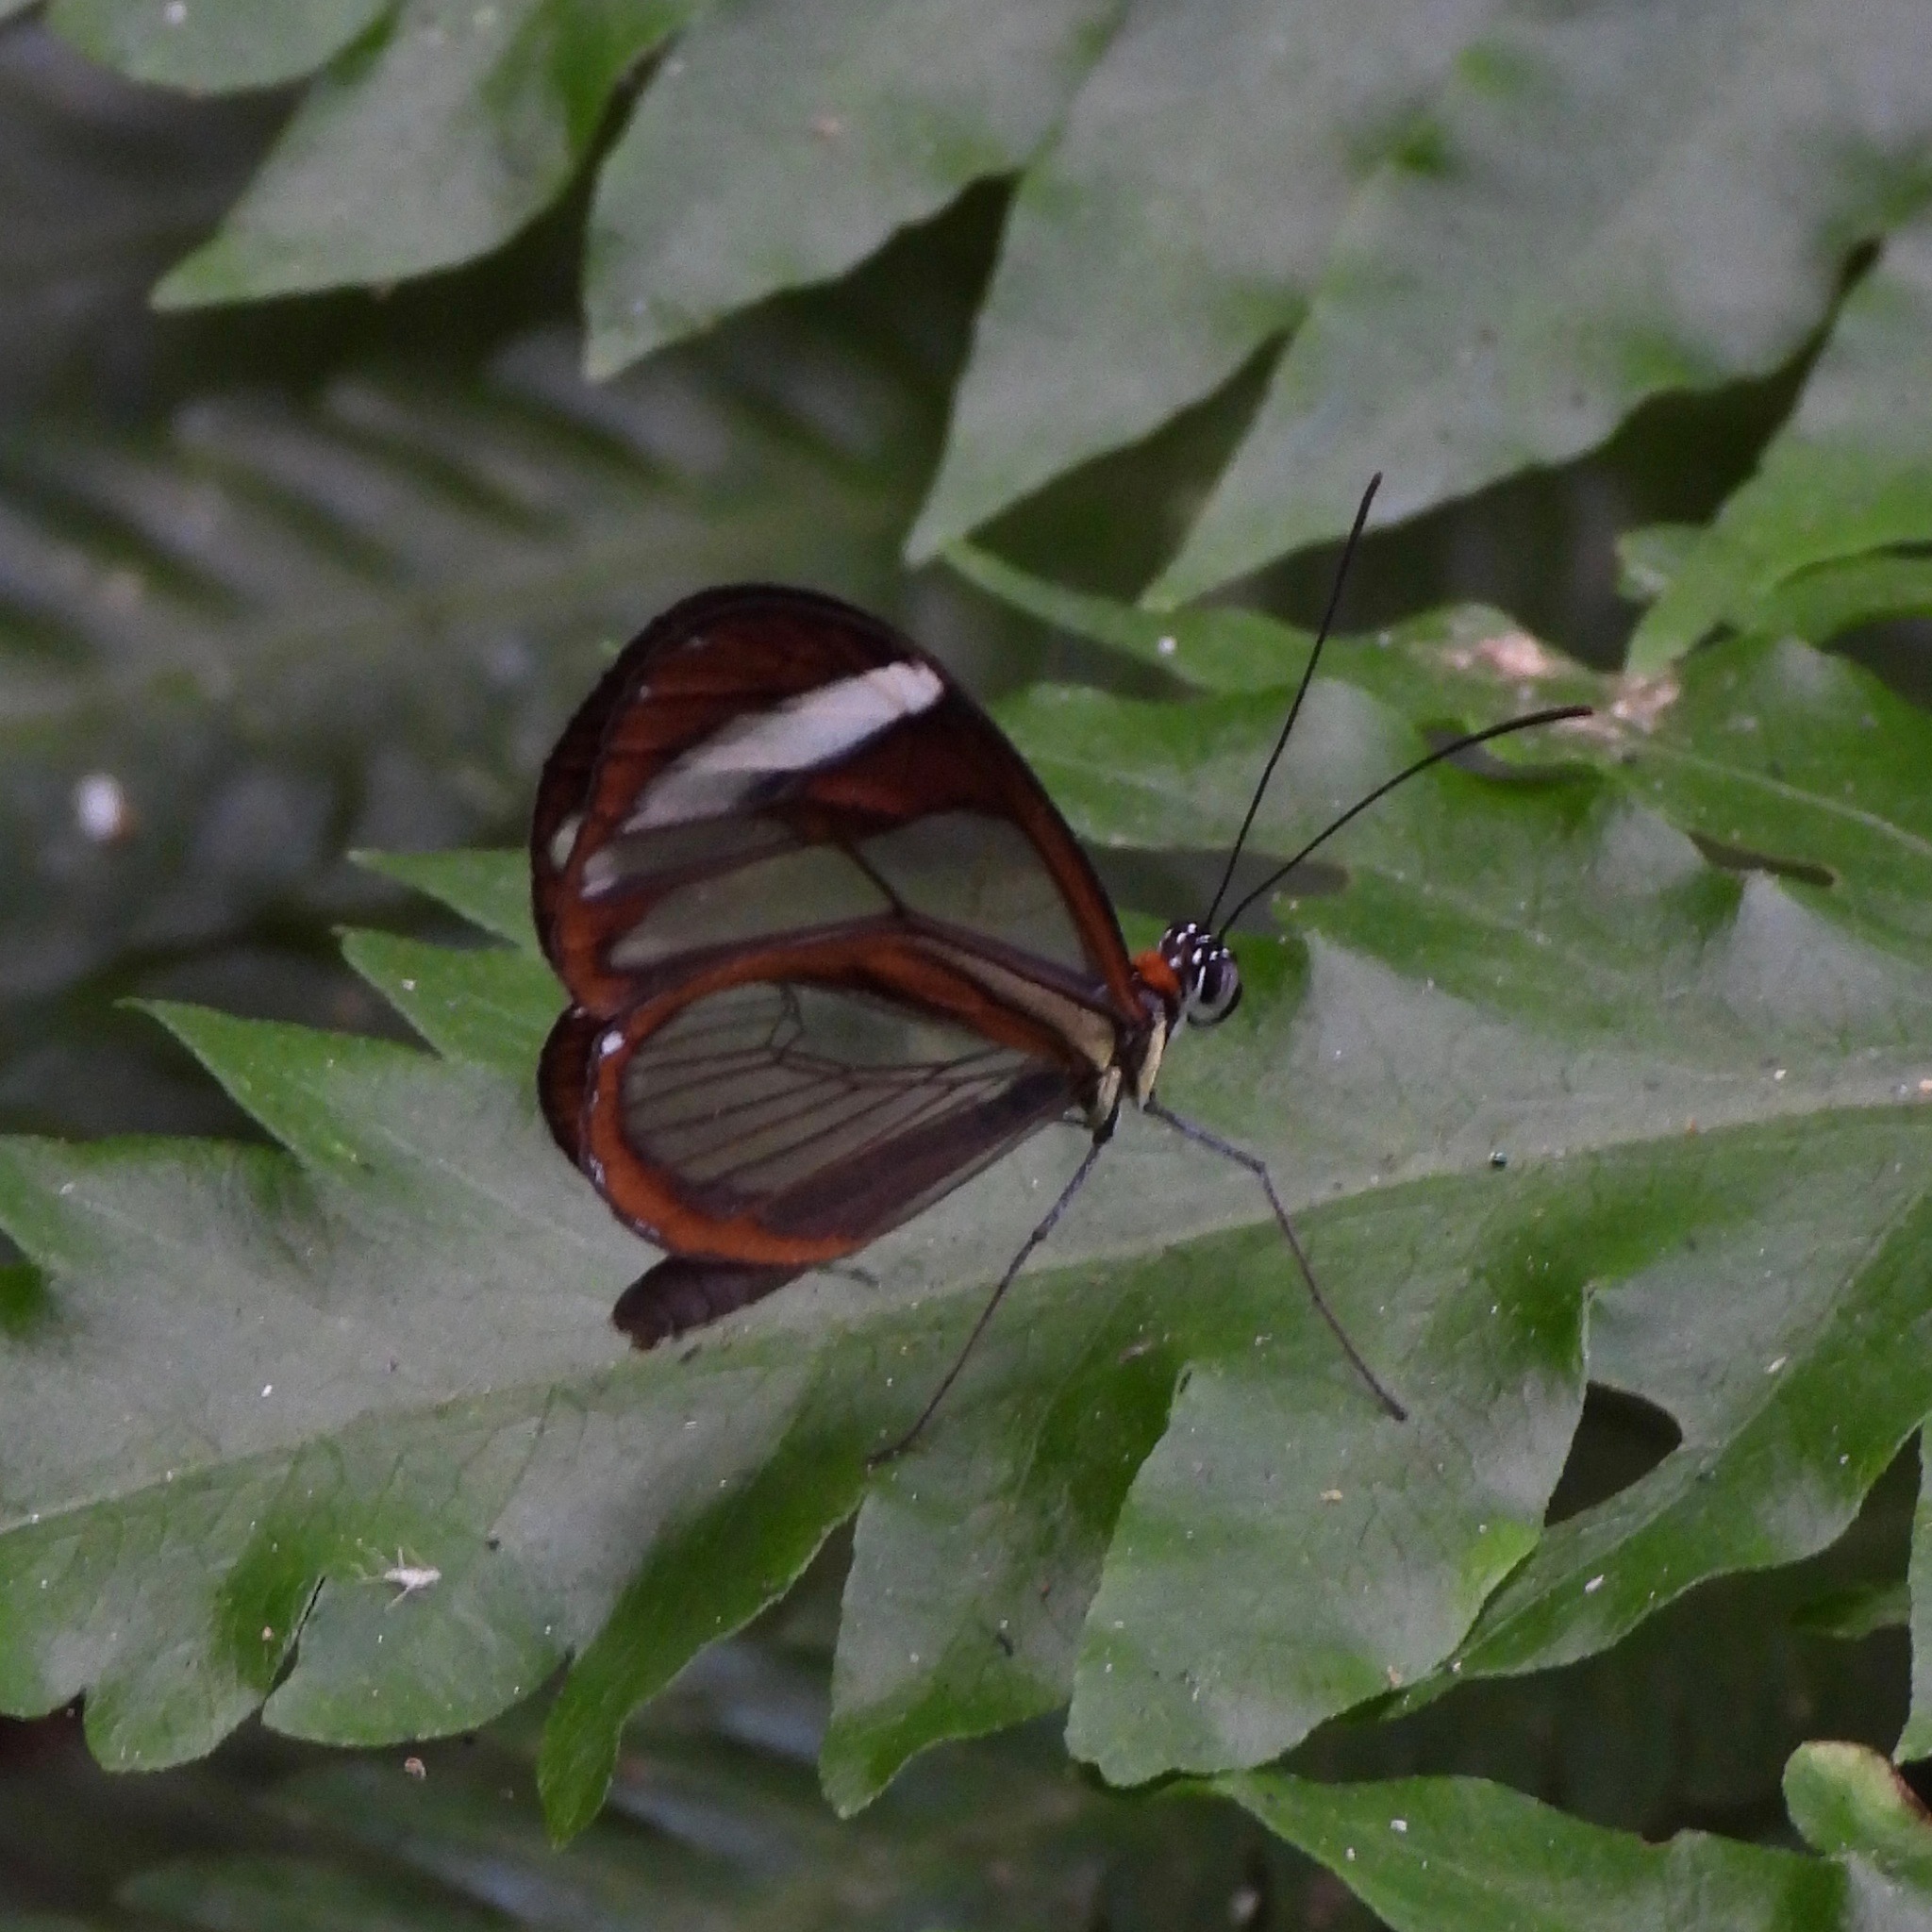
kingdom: Animalia
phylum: Arthropoda
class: Insecta
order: Lepidoptera
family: Nymphalidae
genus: Ithomia
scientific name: Ithomia patilla
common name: Patilla clearwing
